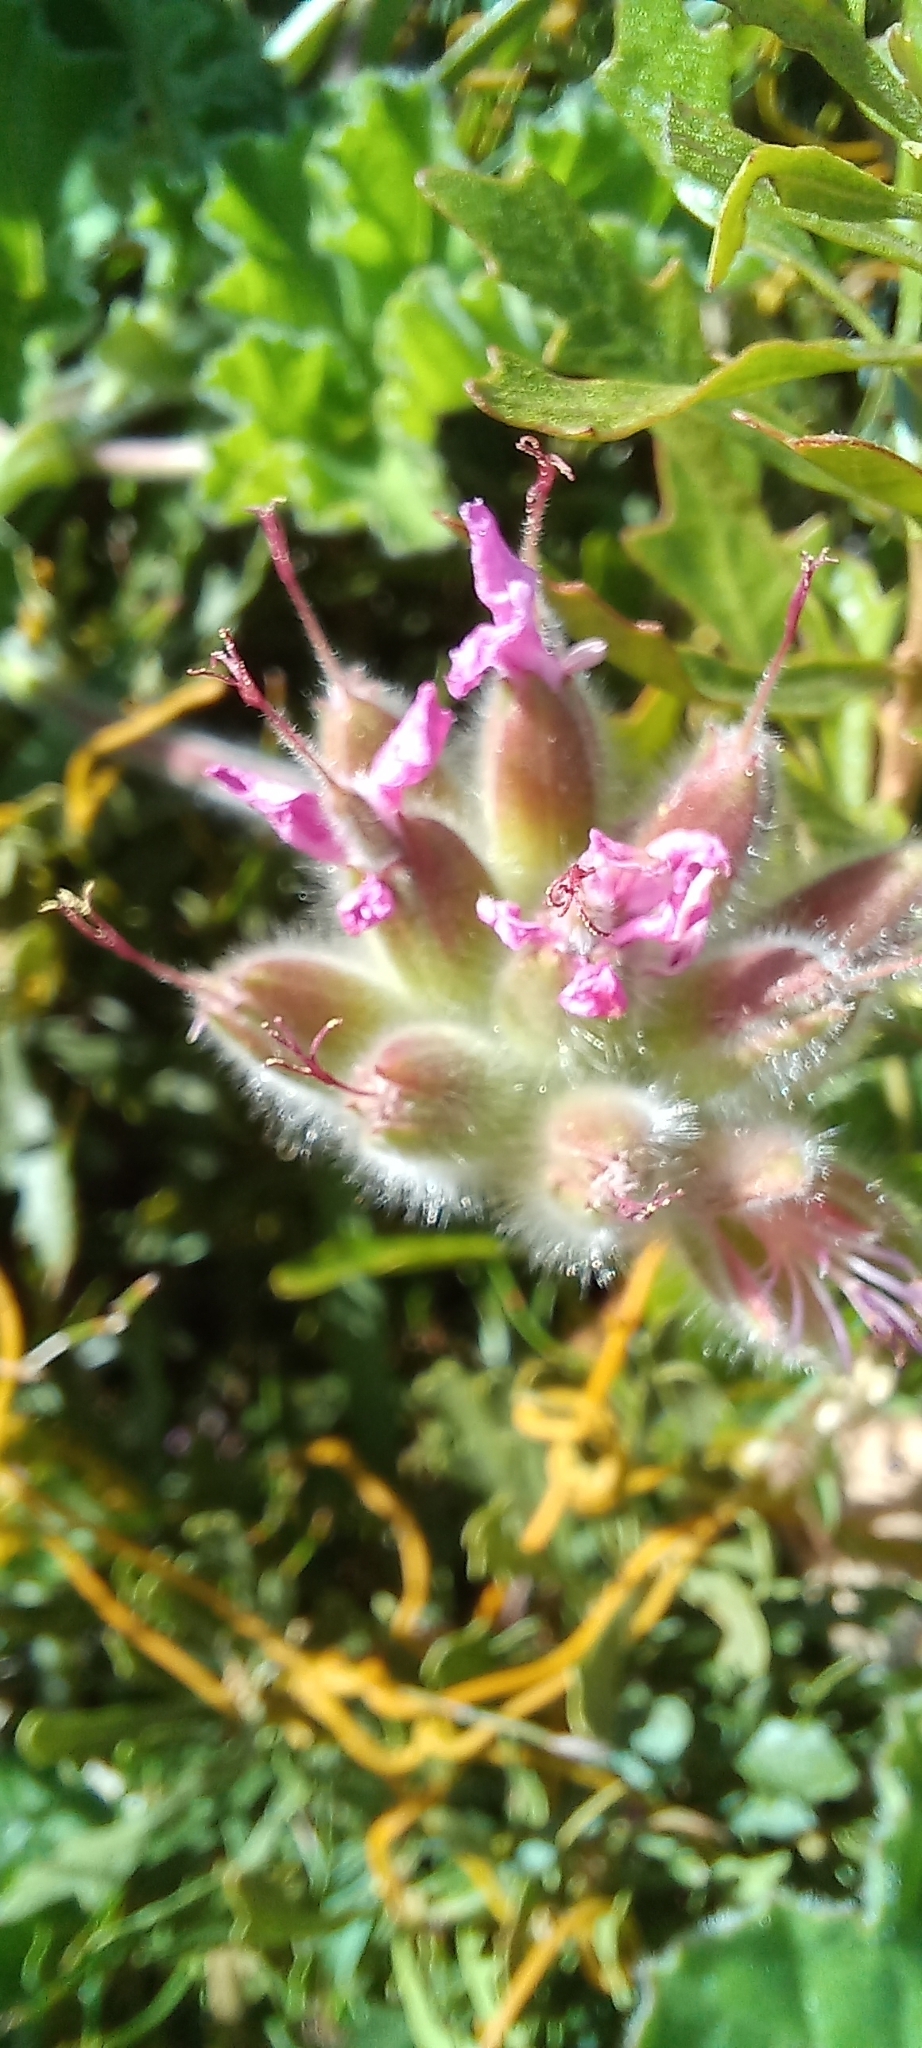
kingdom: Plantae
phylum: Tracheophyta
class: Magnoliopsida
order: Geraniales
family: Geraniaceae
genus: Pelargonium
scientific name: Pelargonium capitatum
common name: Rose scented geranium
